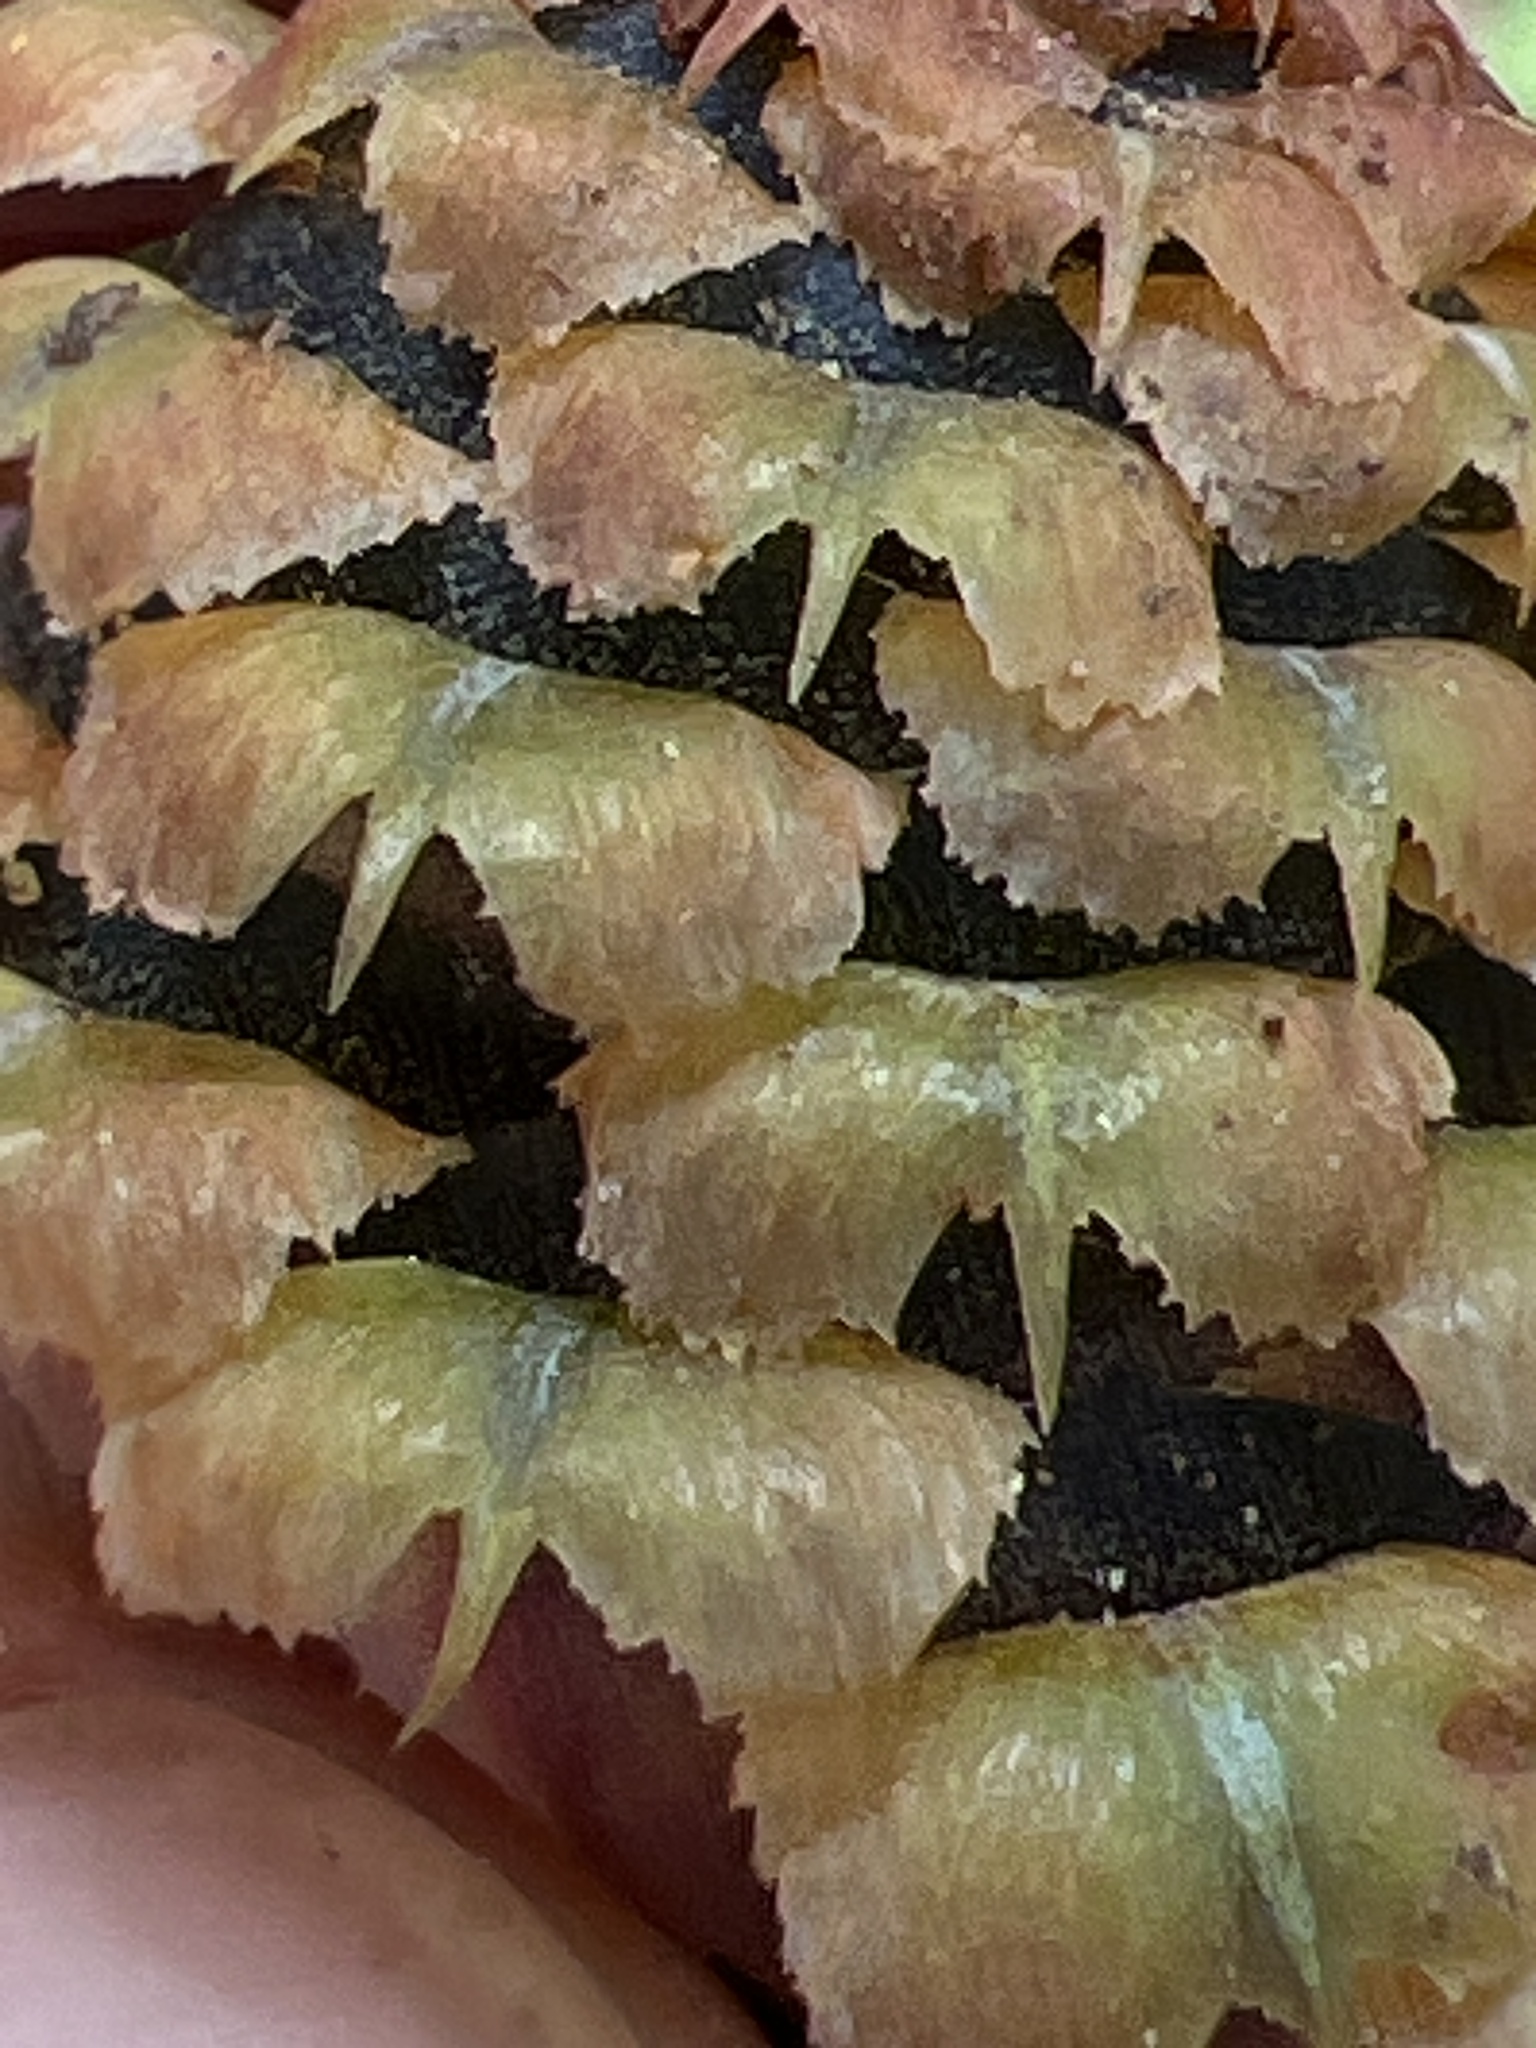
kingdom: Plantae
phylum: Tracheophyta
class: Pinopsida
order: Pinales
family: Pinaceae
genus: Abies
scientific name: Abies fraseri
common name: Fraser fir
